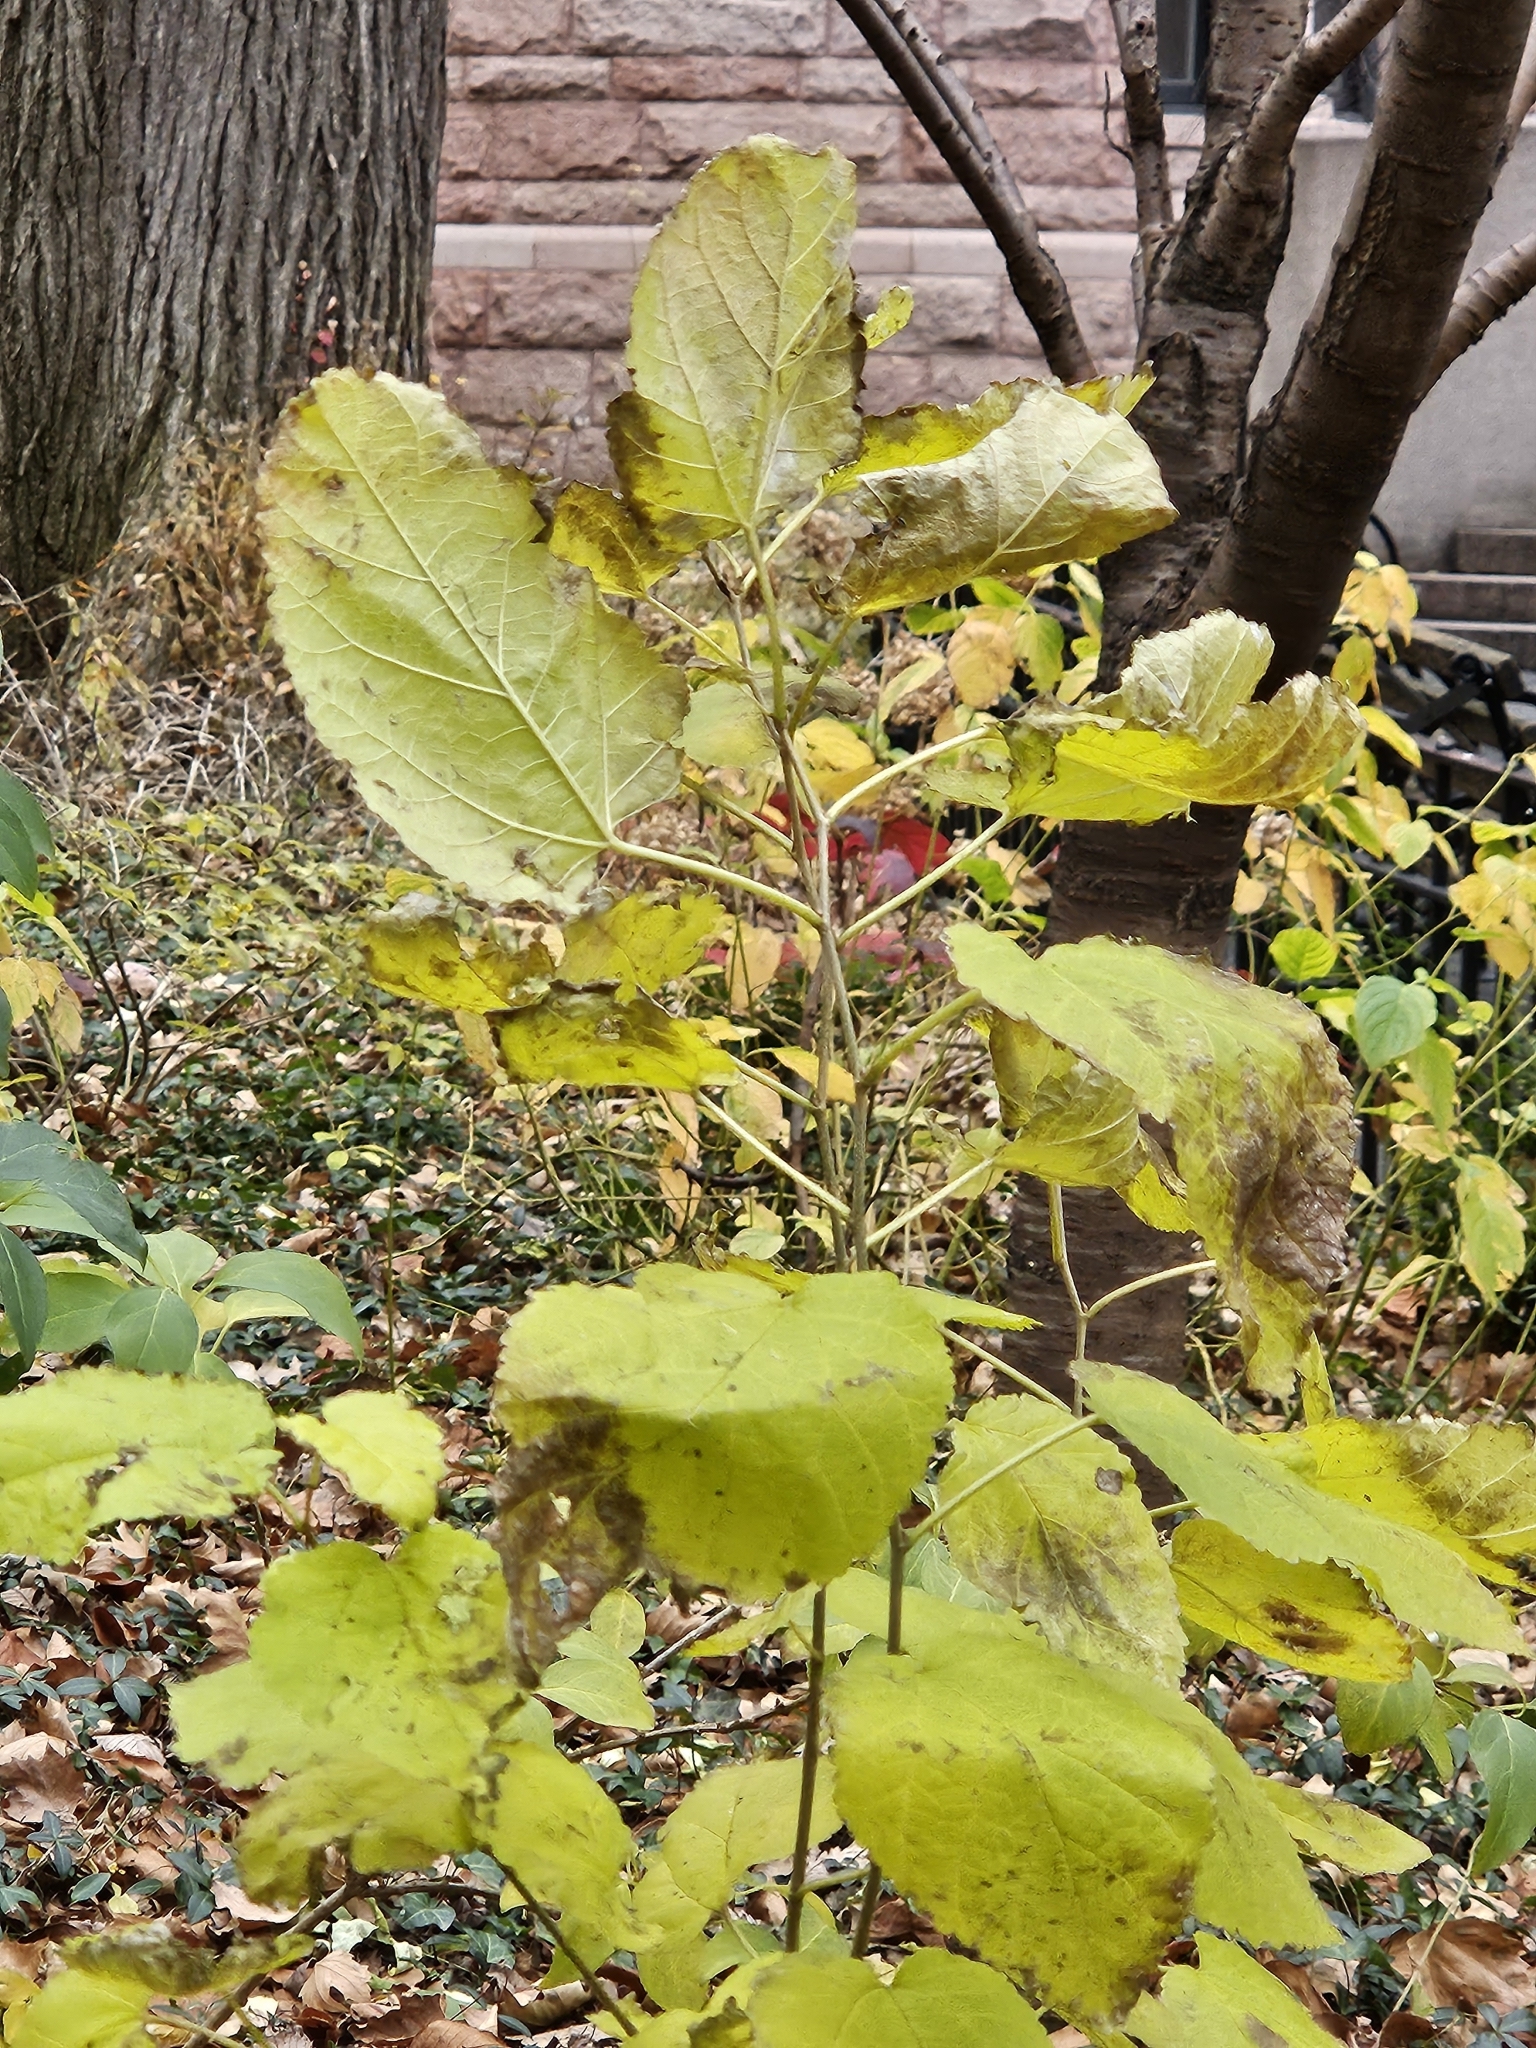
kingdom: Plantae
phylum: Tracheophyta
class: Magnoliopsida
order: Rosales
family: Moraceae
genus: Morus
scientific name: Morus alba
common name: White mulberry
